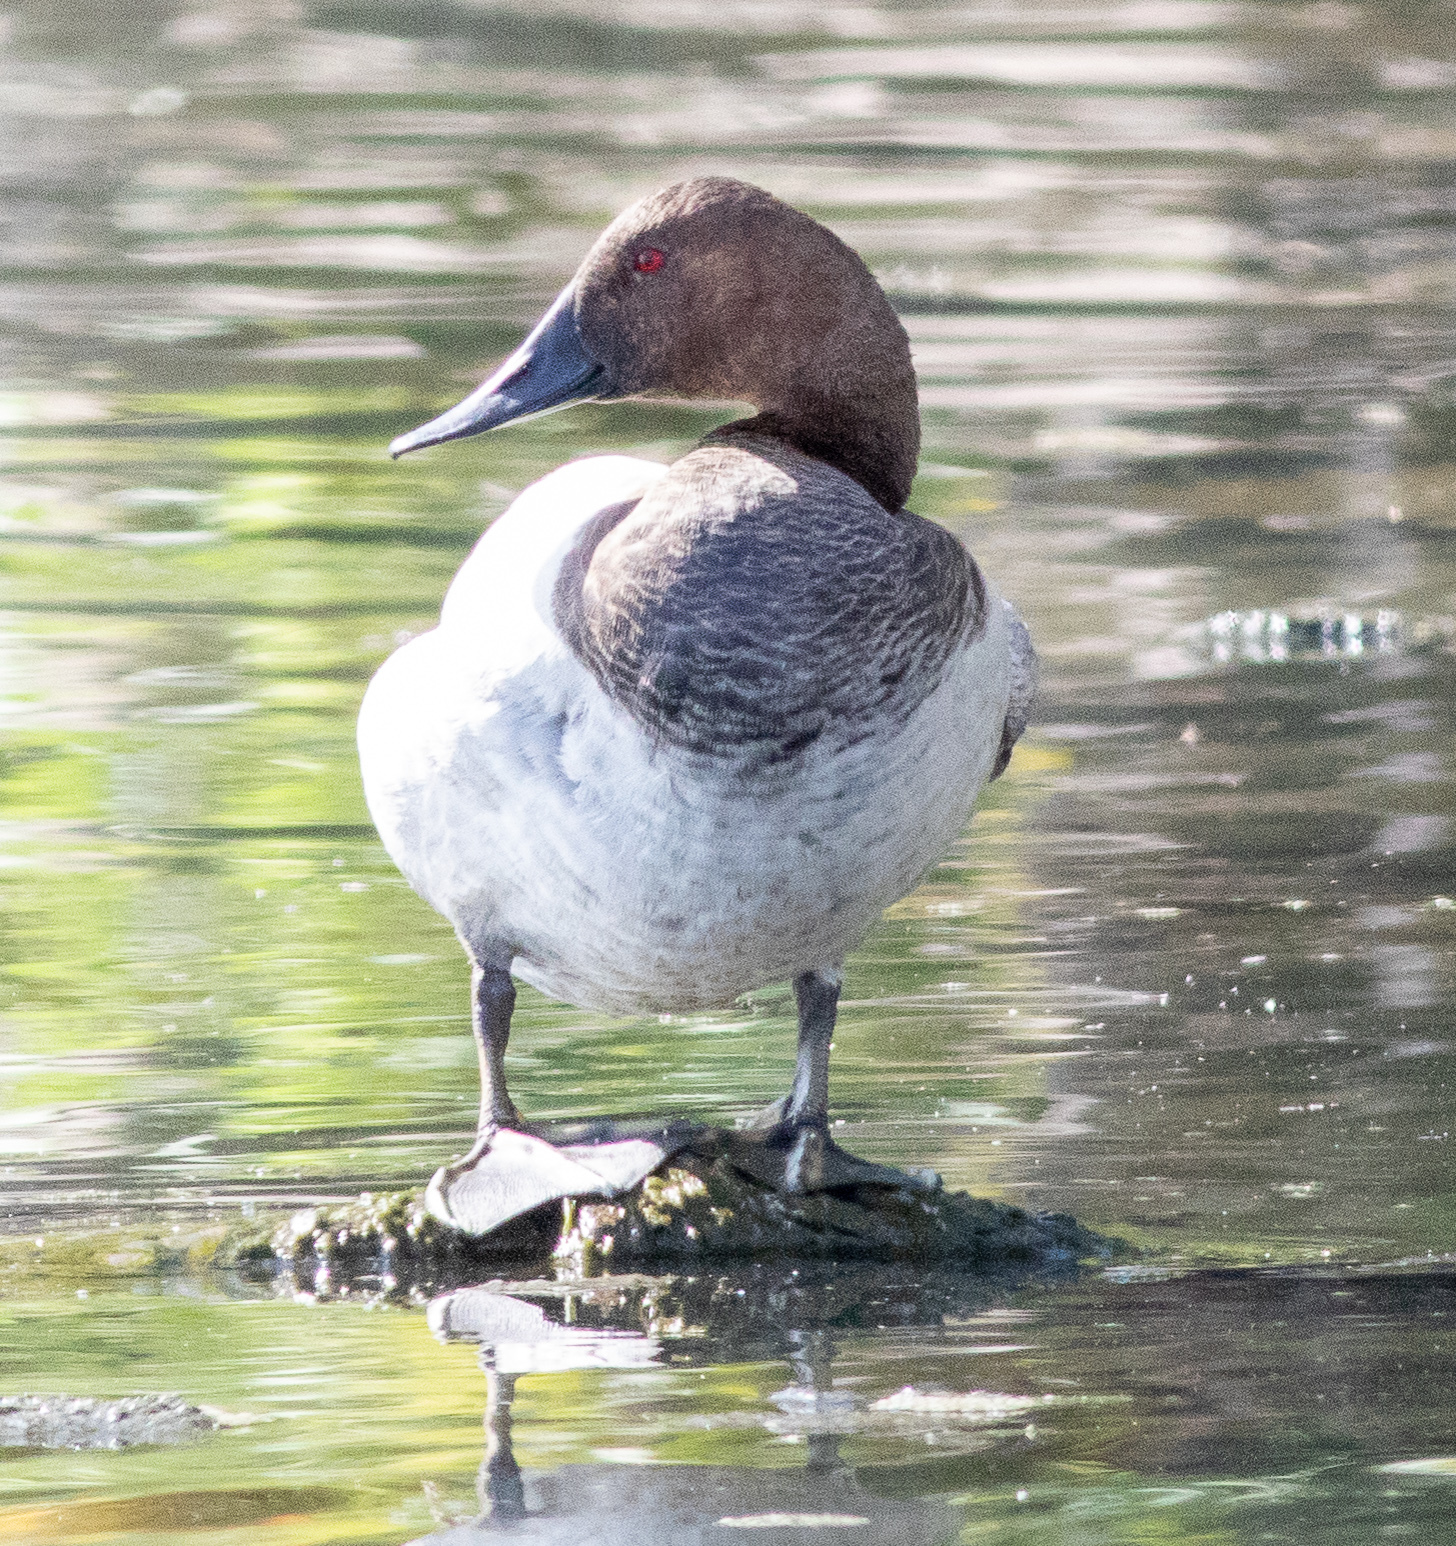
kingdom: Animalia
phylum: Chordata
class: Aves
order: Anseriformes
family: Anatidae
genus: Aythya
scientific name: Aythya valisineria
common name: Canvasback
